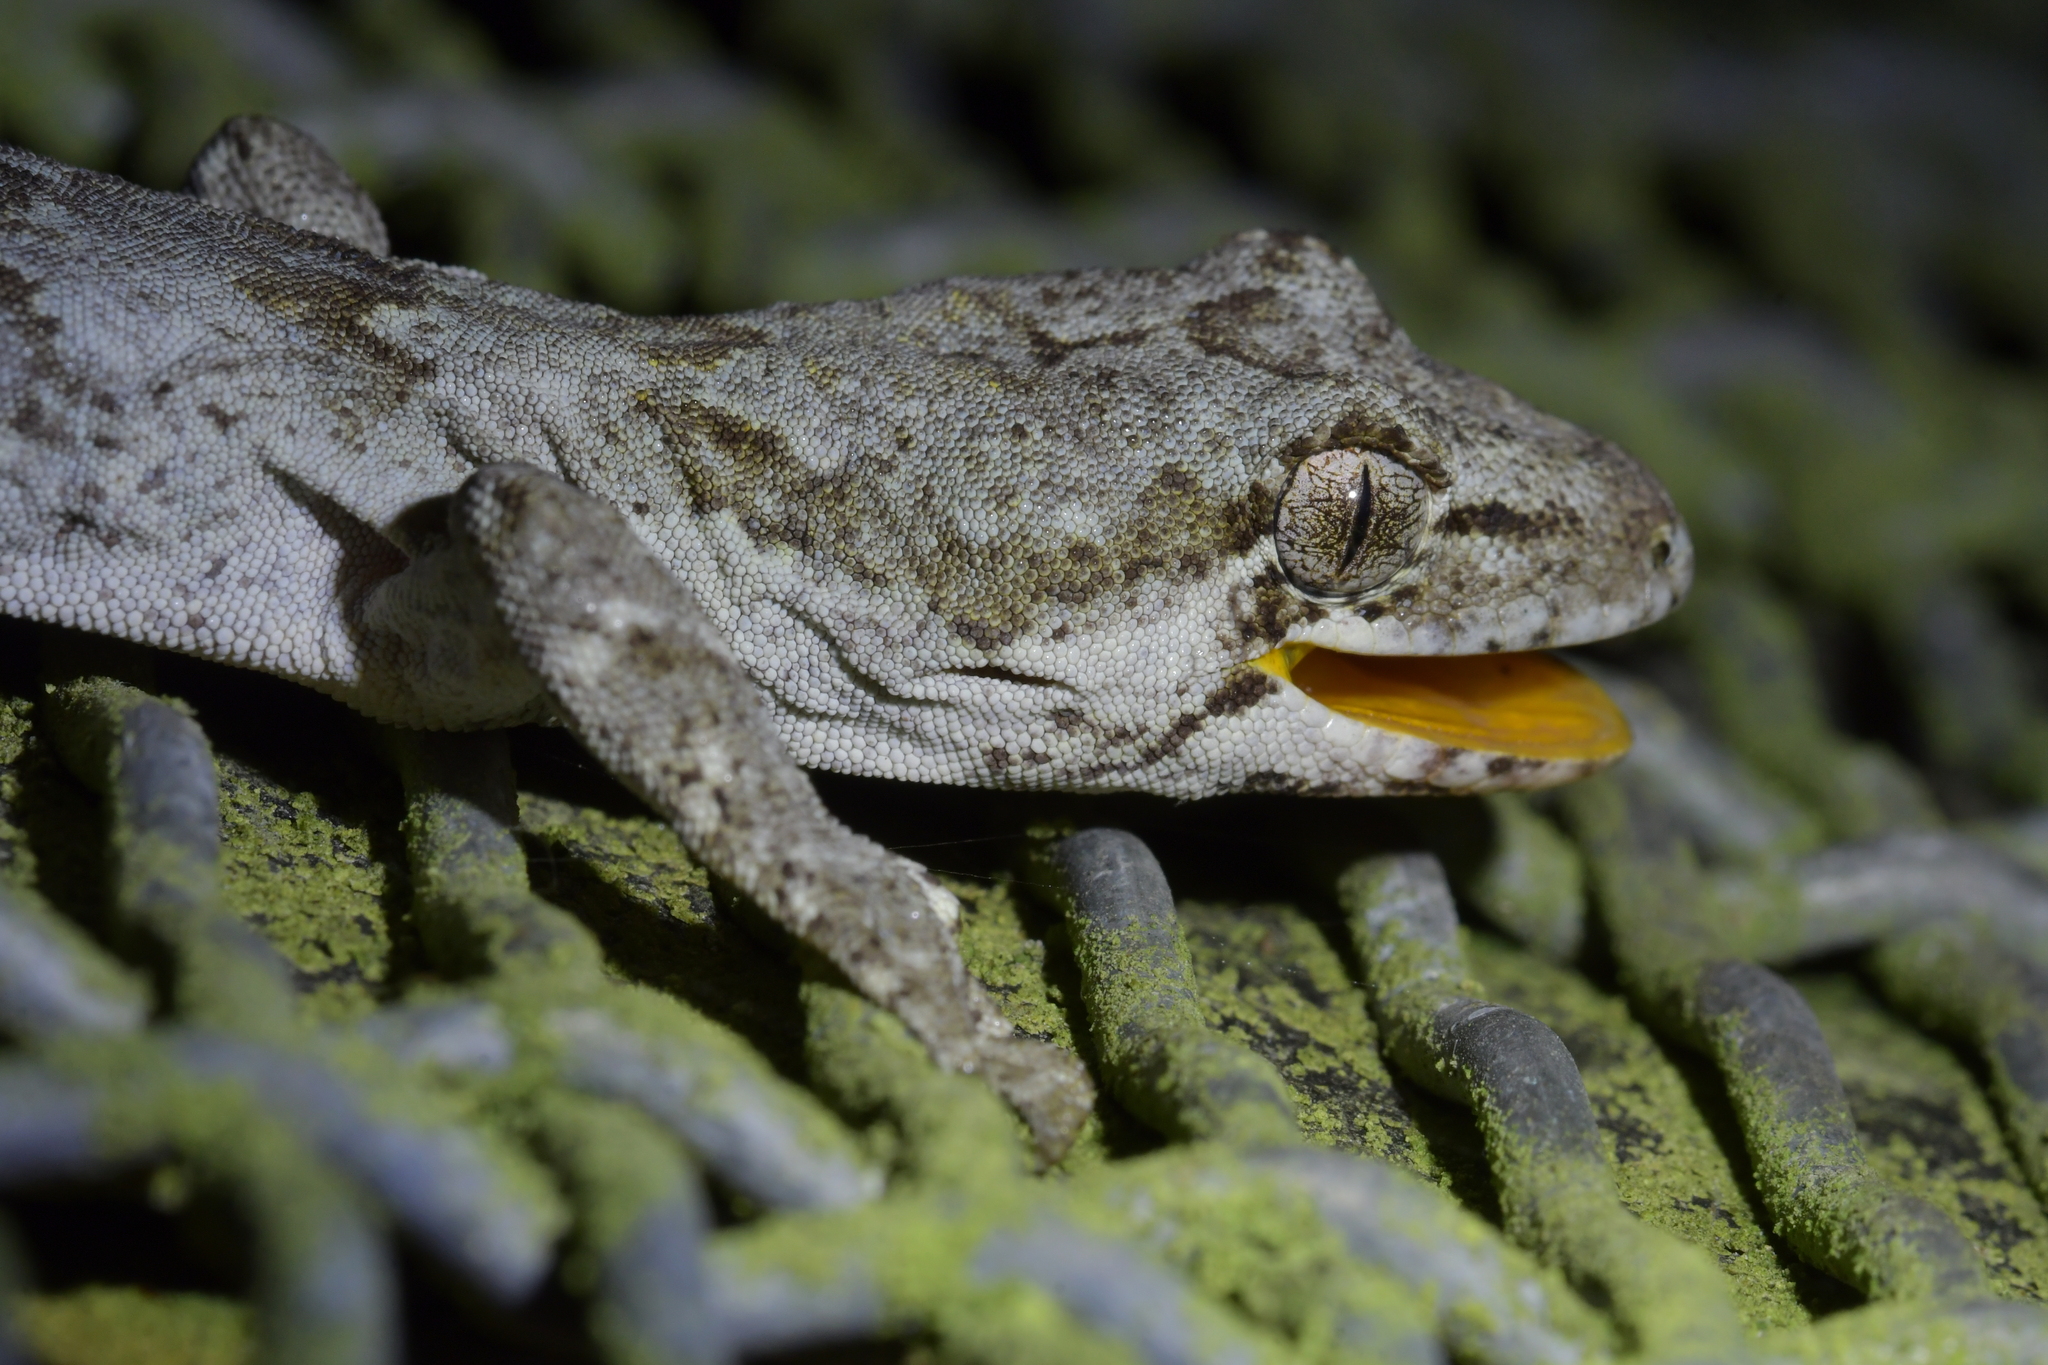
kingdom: Animalia
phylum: Chordata
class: Squamata
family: Diplodactylidae
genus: Mokopirirakau
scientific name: Mokopirirakau
